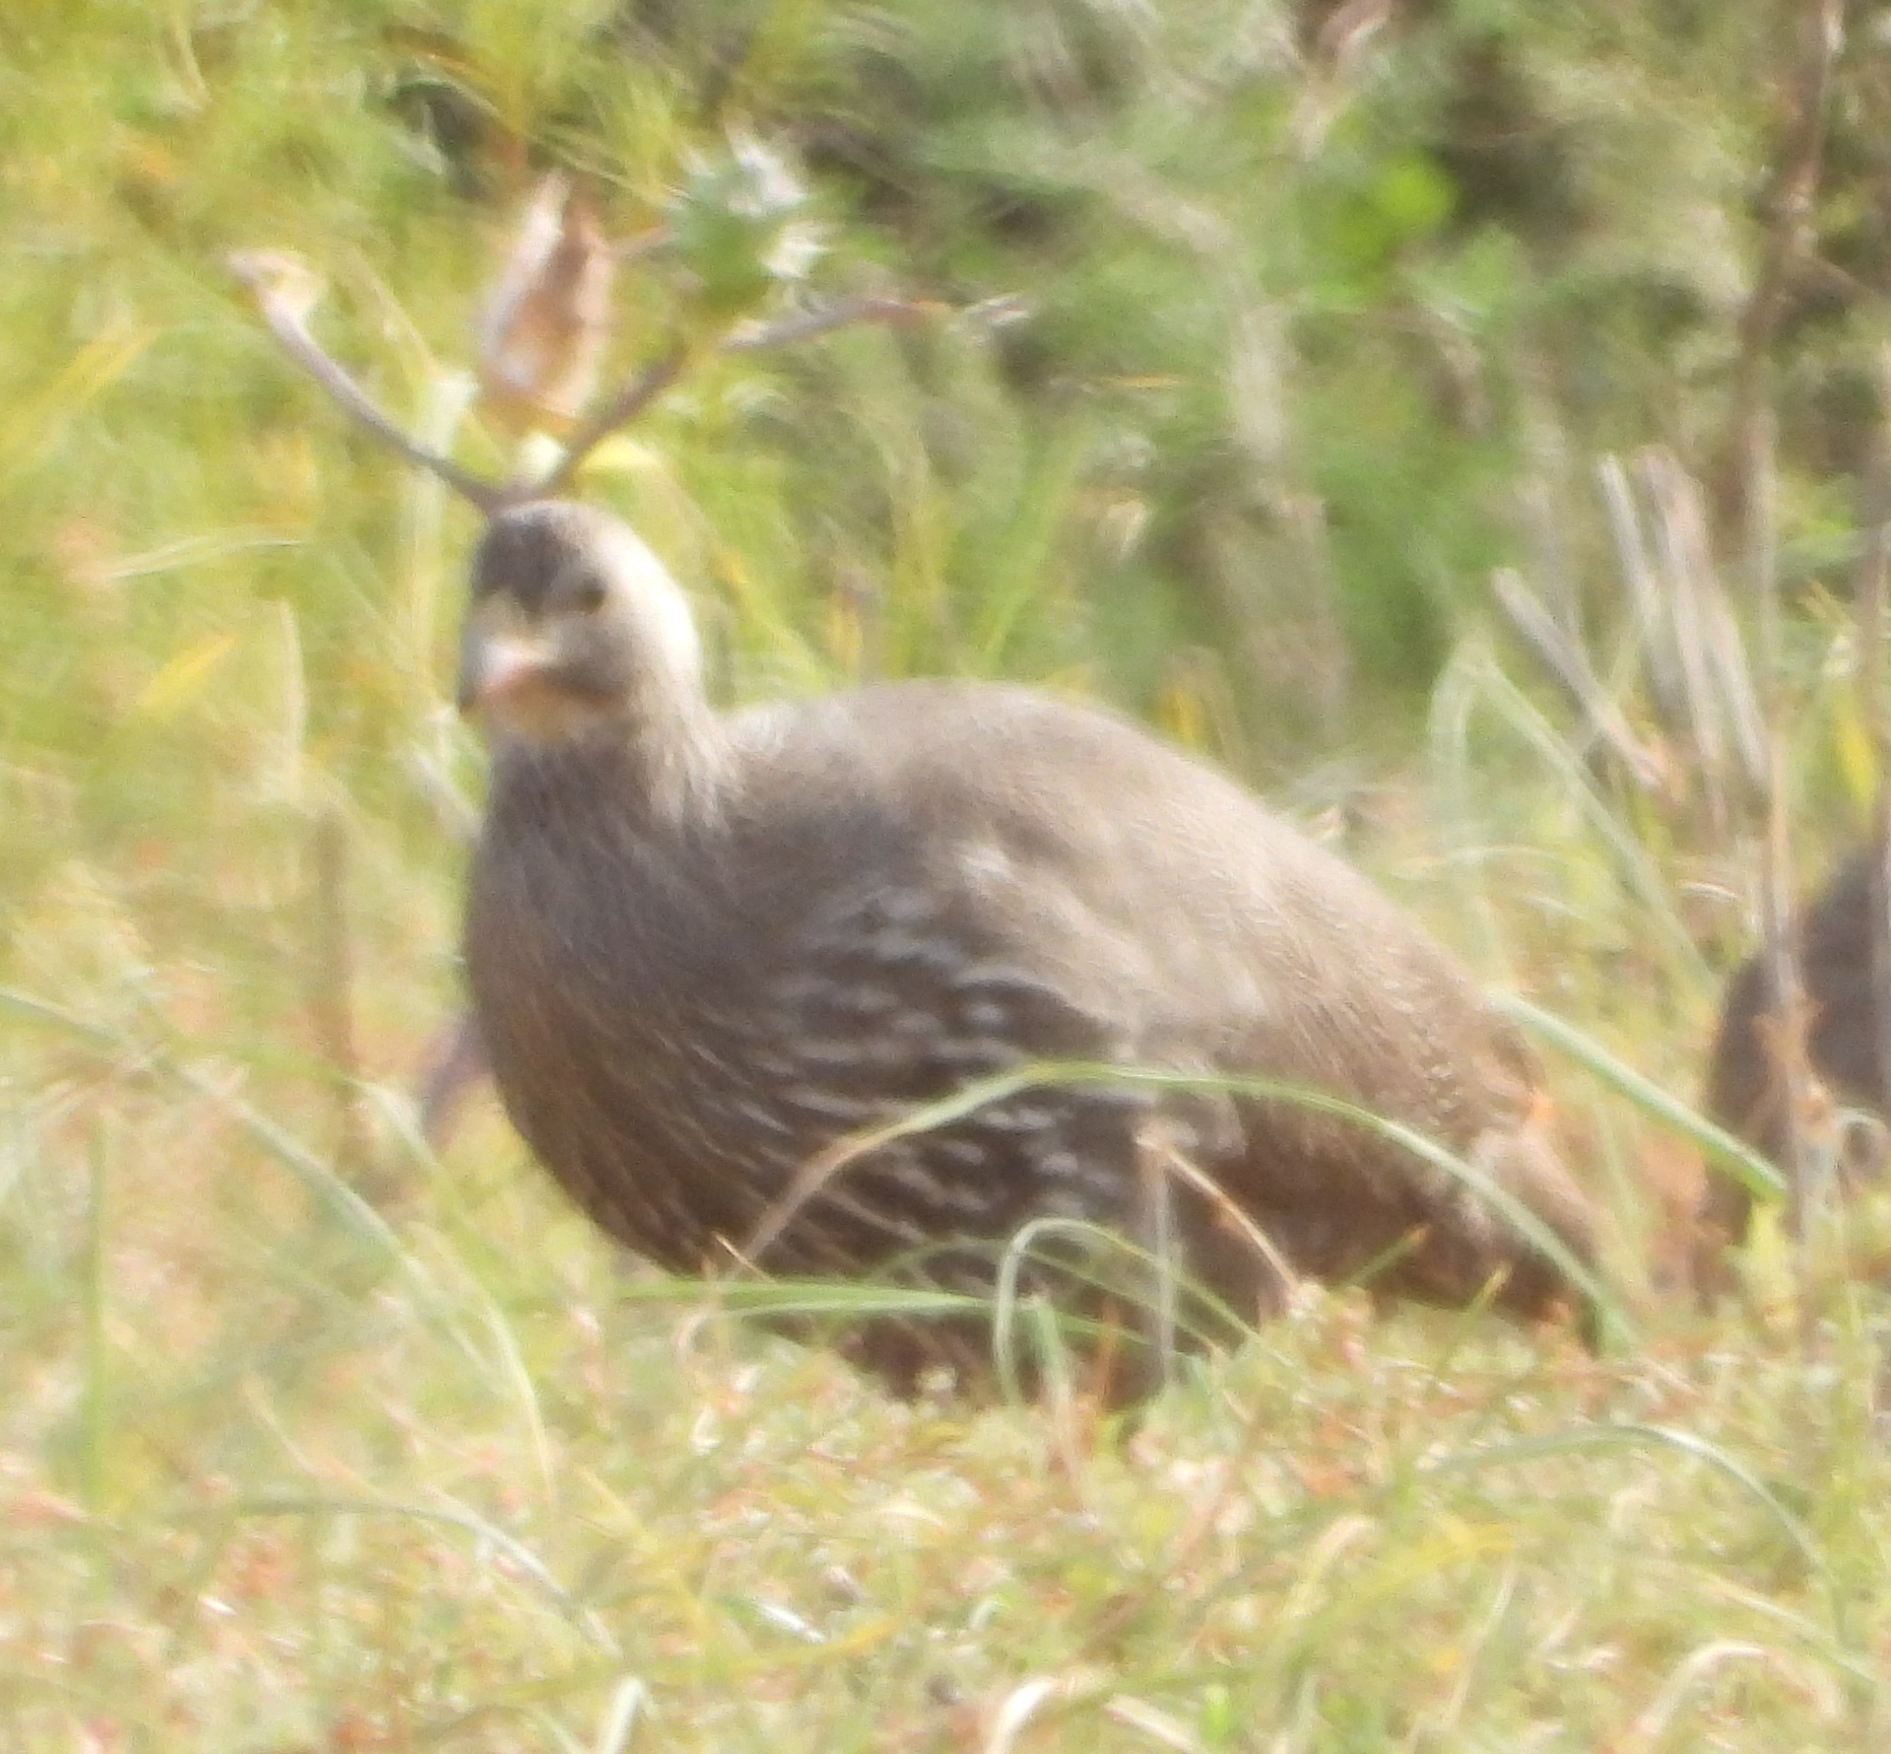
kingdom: Animalia
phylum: Chordata
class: Aves
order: Galliformes
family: Phasianidae
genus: Pternistis
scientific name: Pternistis capensis
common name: Cape spurfowl
